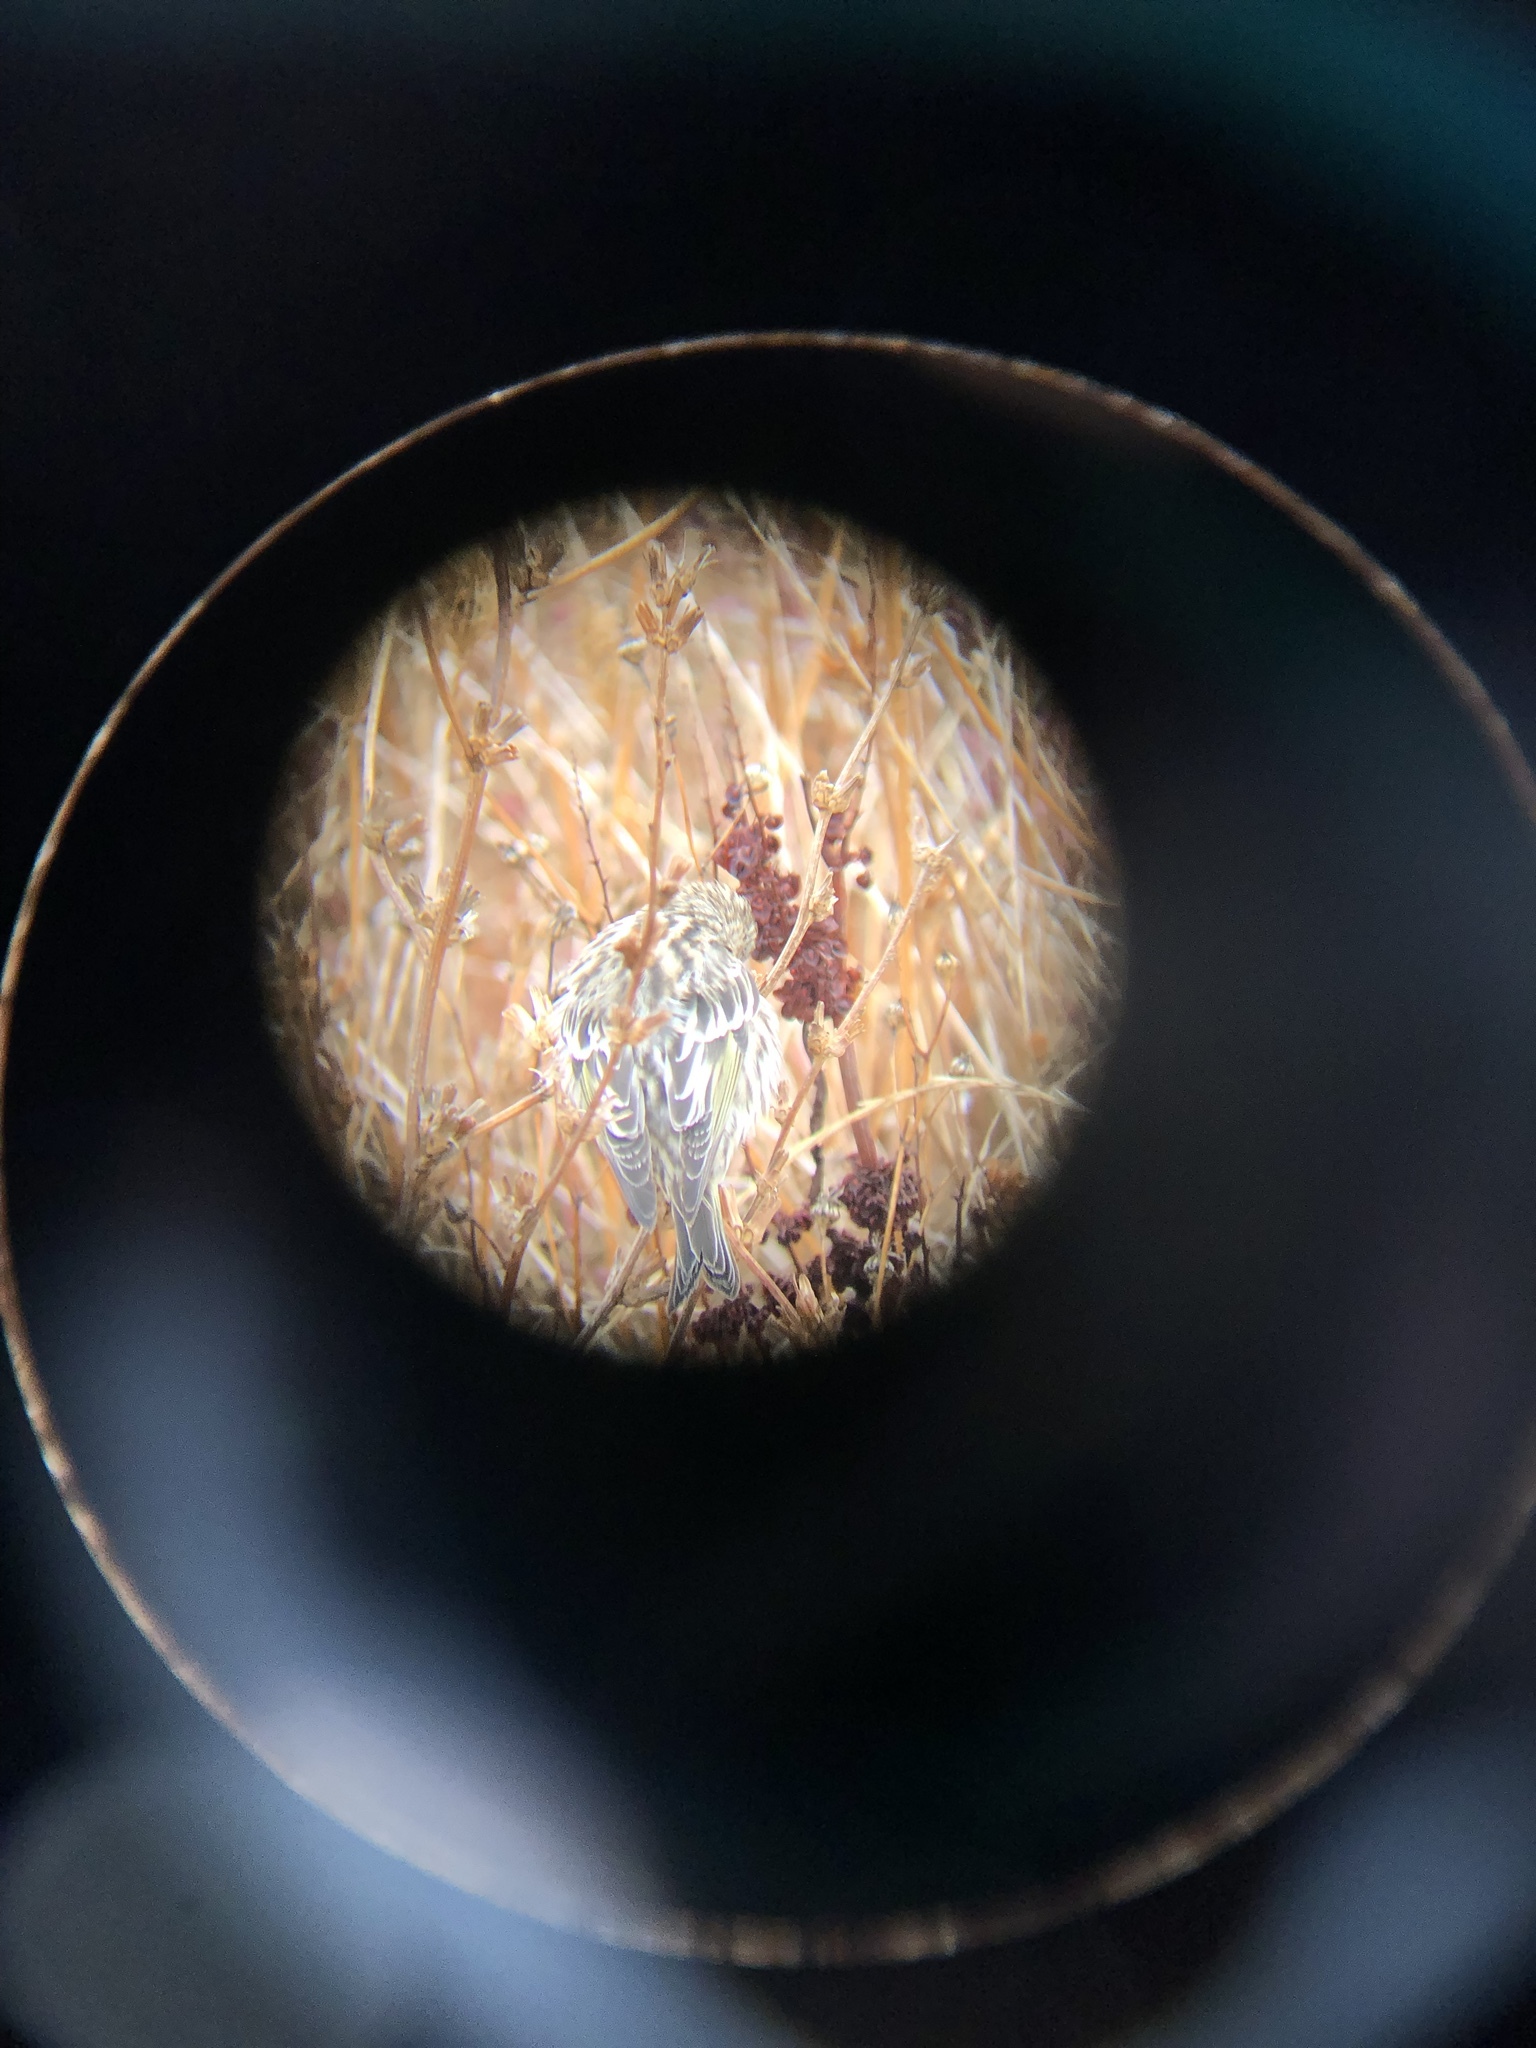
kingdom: Animalia
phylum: Chordata
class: Aves
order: Passeriformes
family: Fringillidae
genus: Spinus
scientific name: Spinus pinus
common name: Pine siskin
